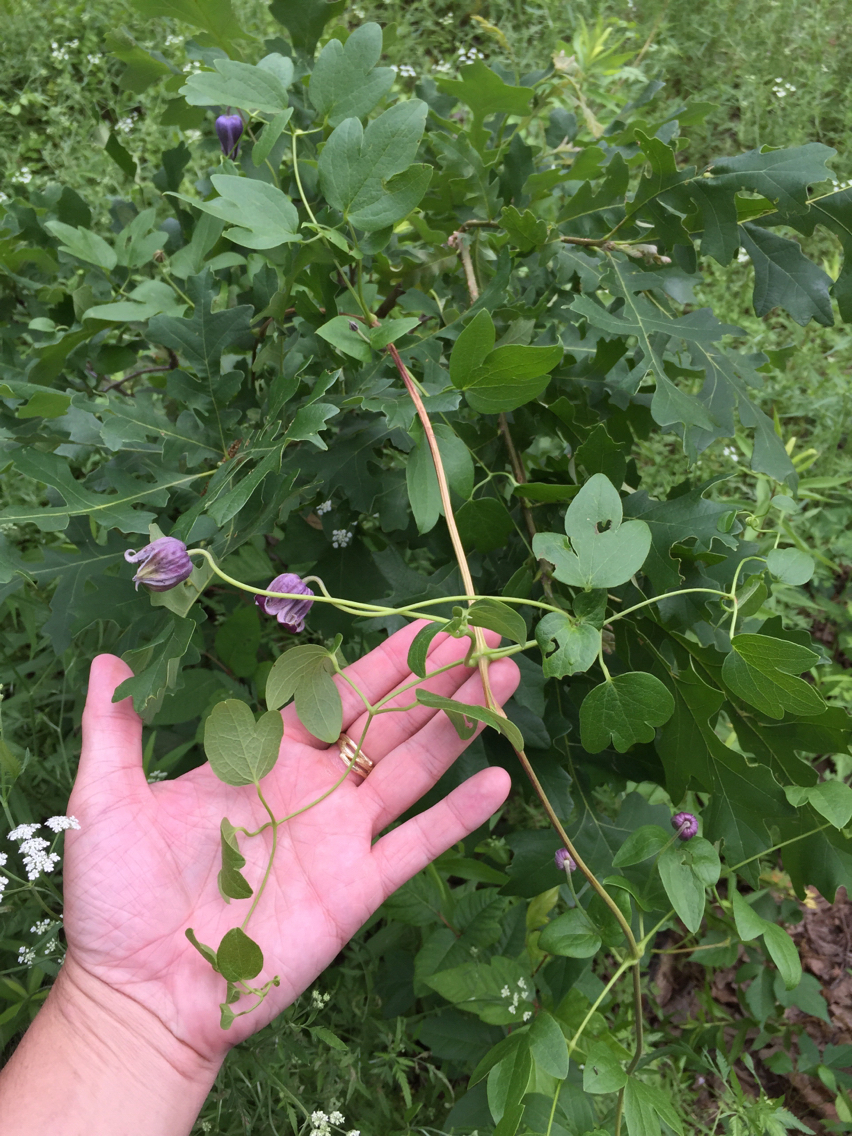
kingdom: Plantae
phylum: Tracheophyta
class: Magnoliopsida
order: Ranunculales
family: Ranunculaceae
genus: Clematis
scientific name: Clematis pitcheri
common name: Bellflower clematis
